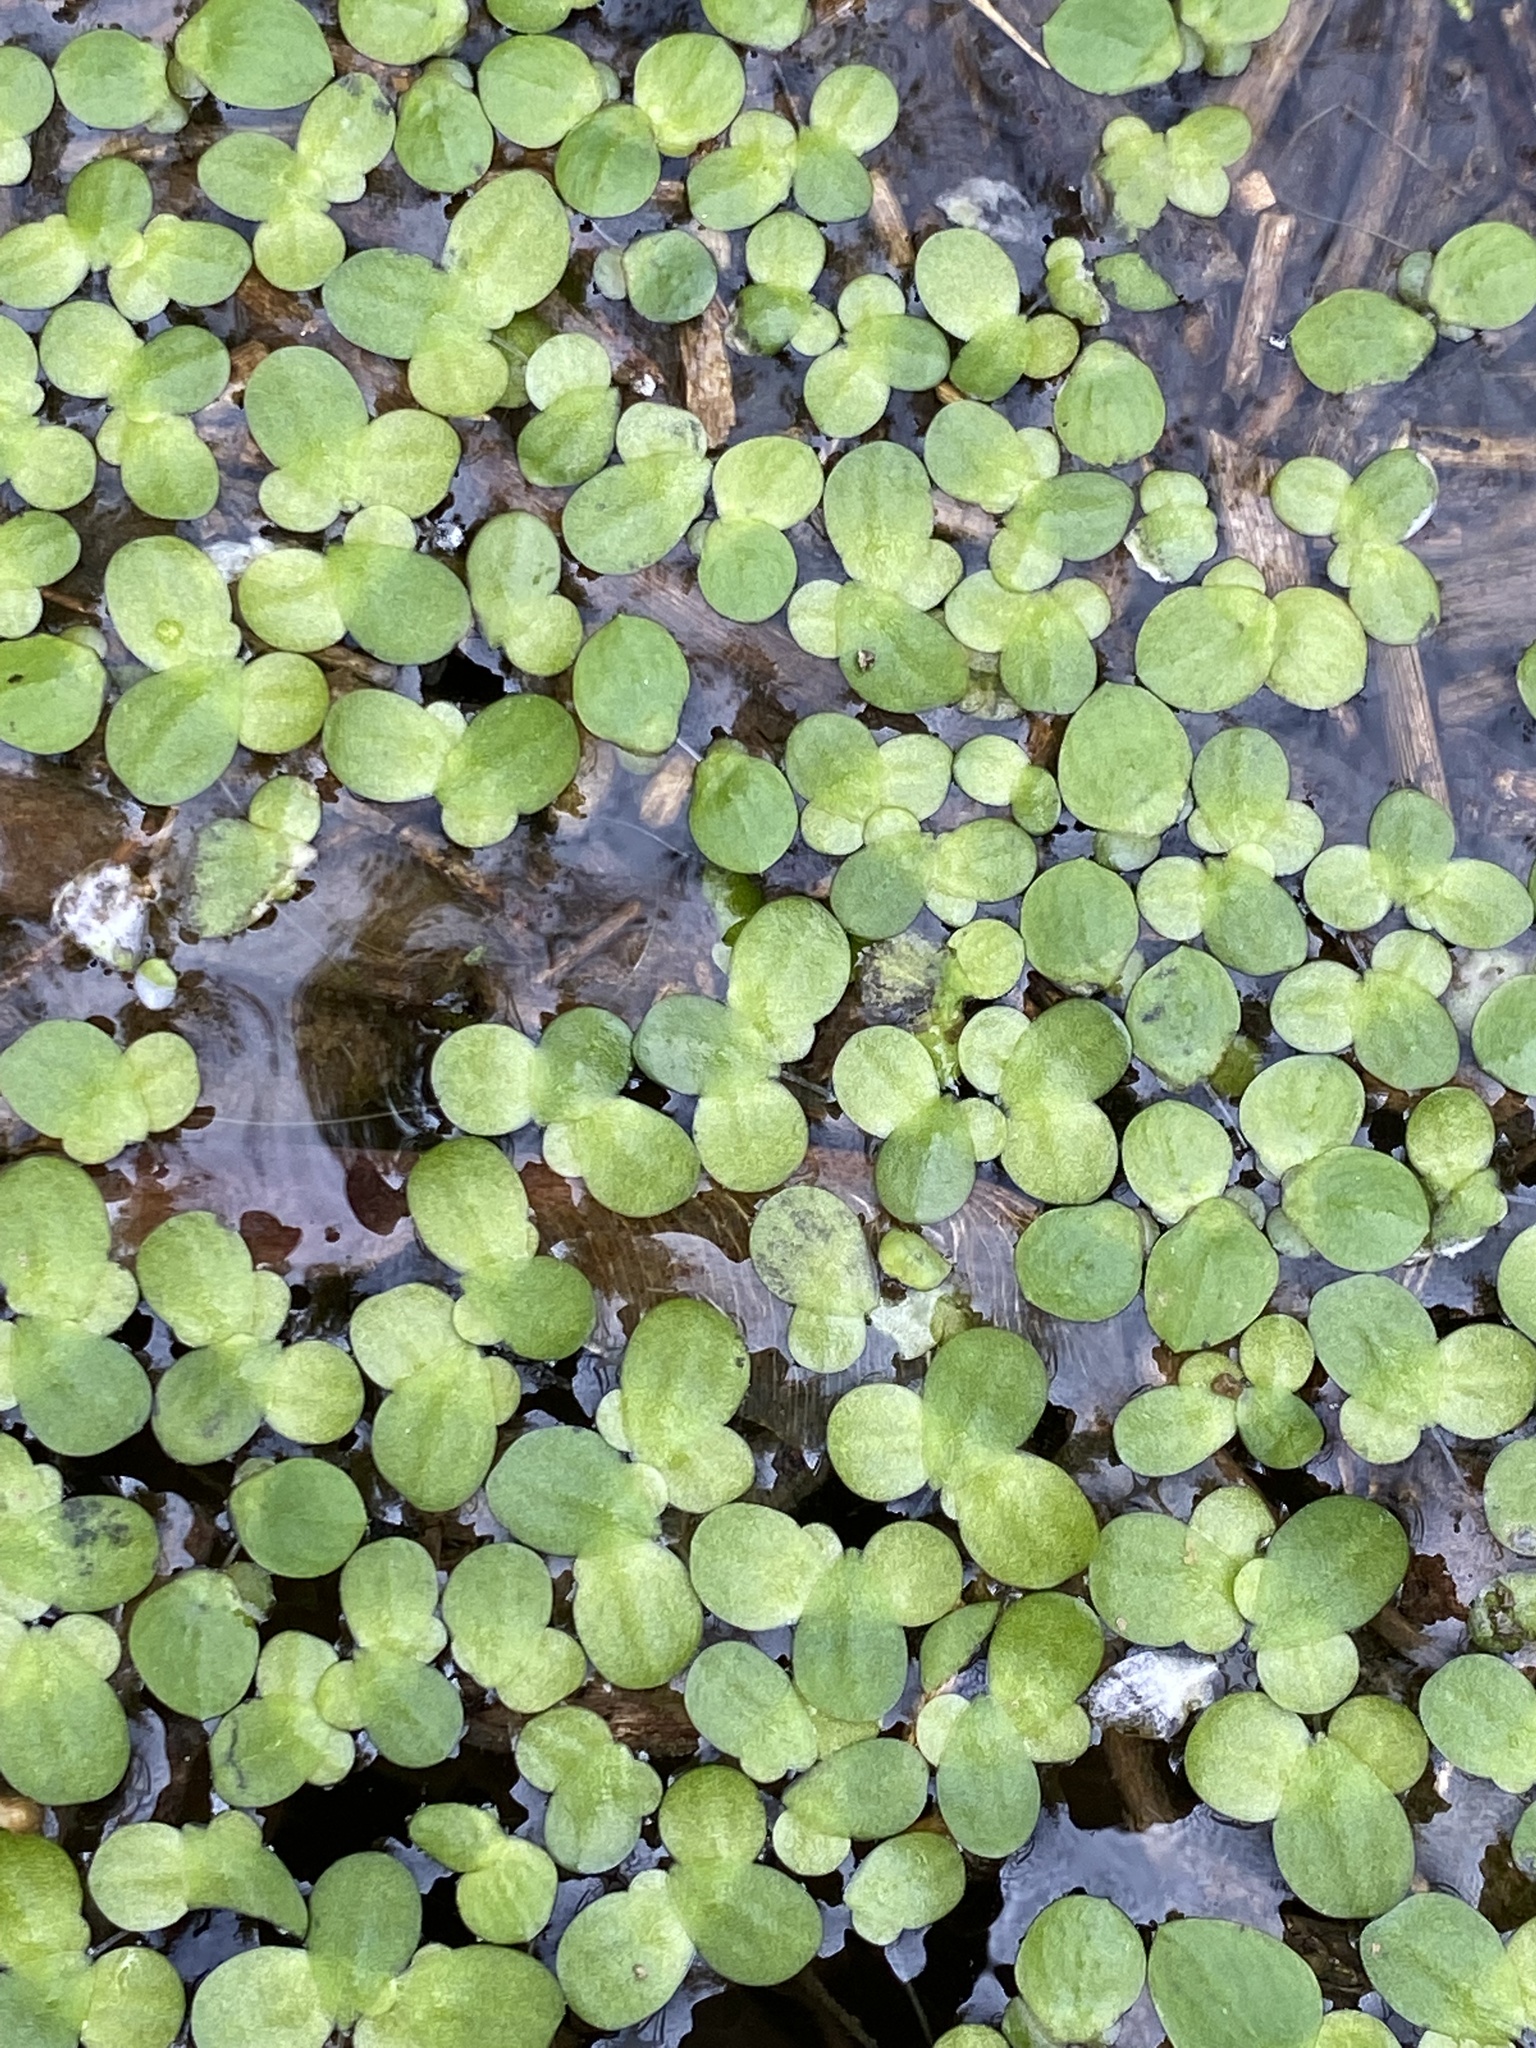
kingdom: Plantae
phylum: Tracheophyta
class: Liliopsida
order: Alismatales
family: Araceae
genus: Spirodela
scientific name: Spirodela polyrhiza
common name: Great duckweed
